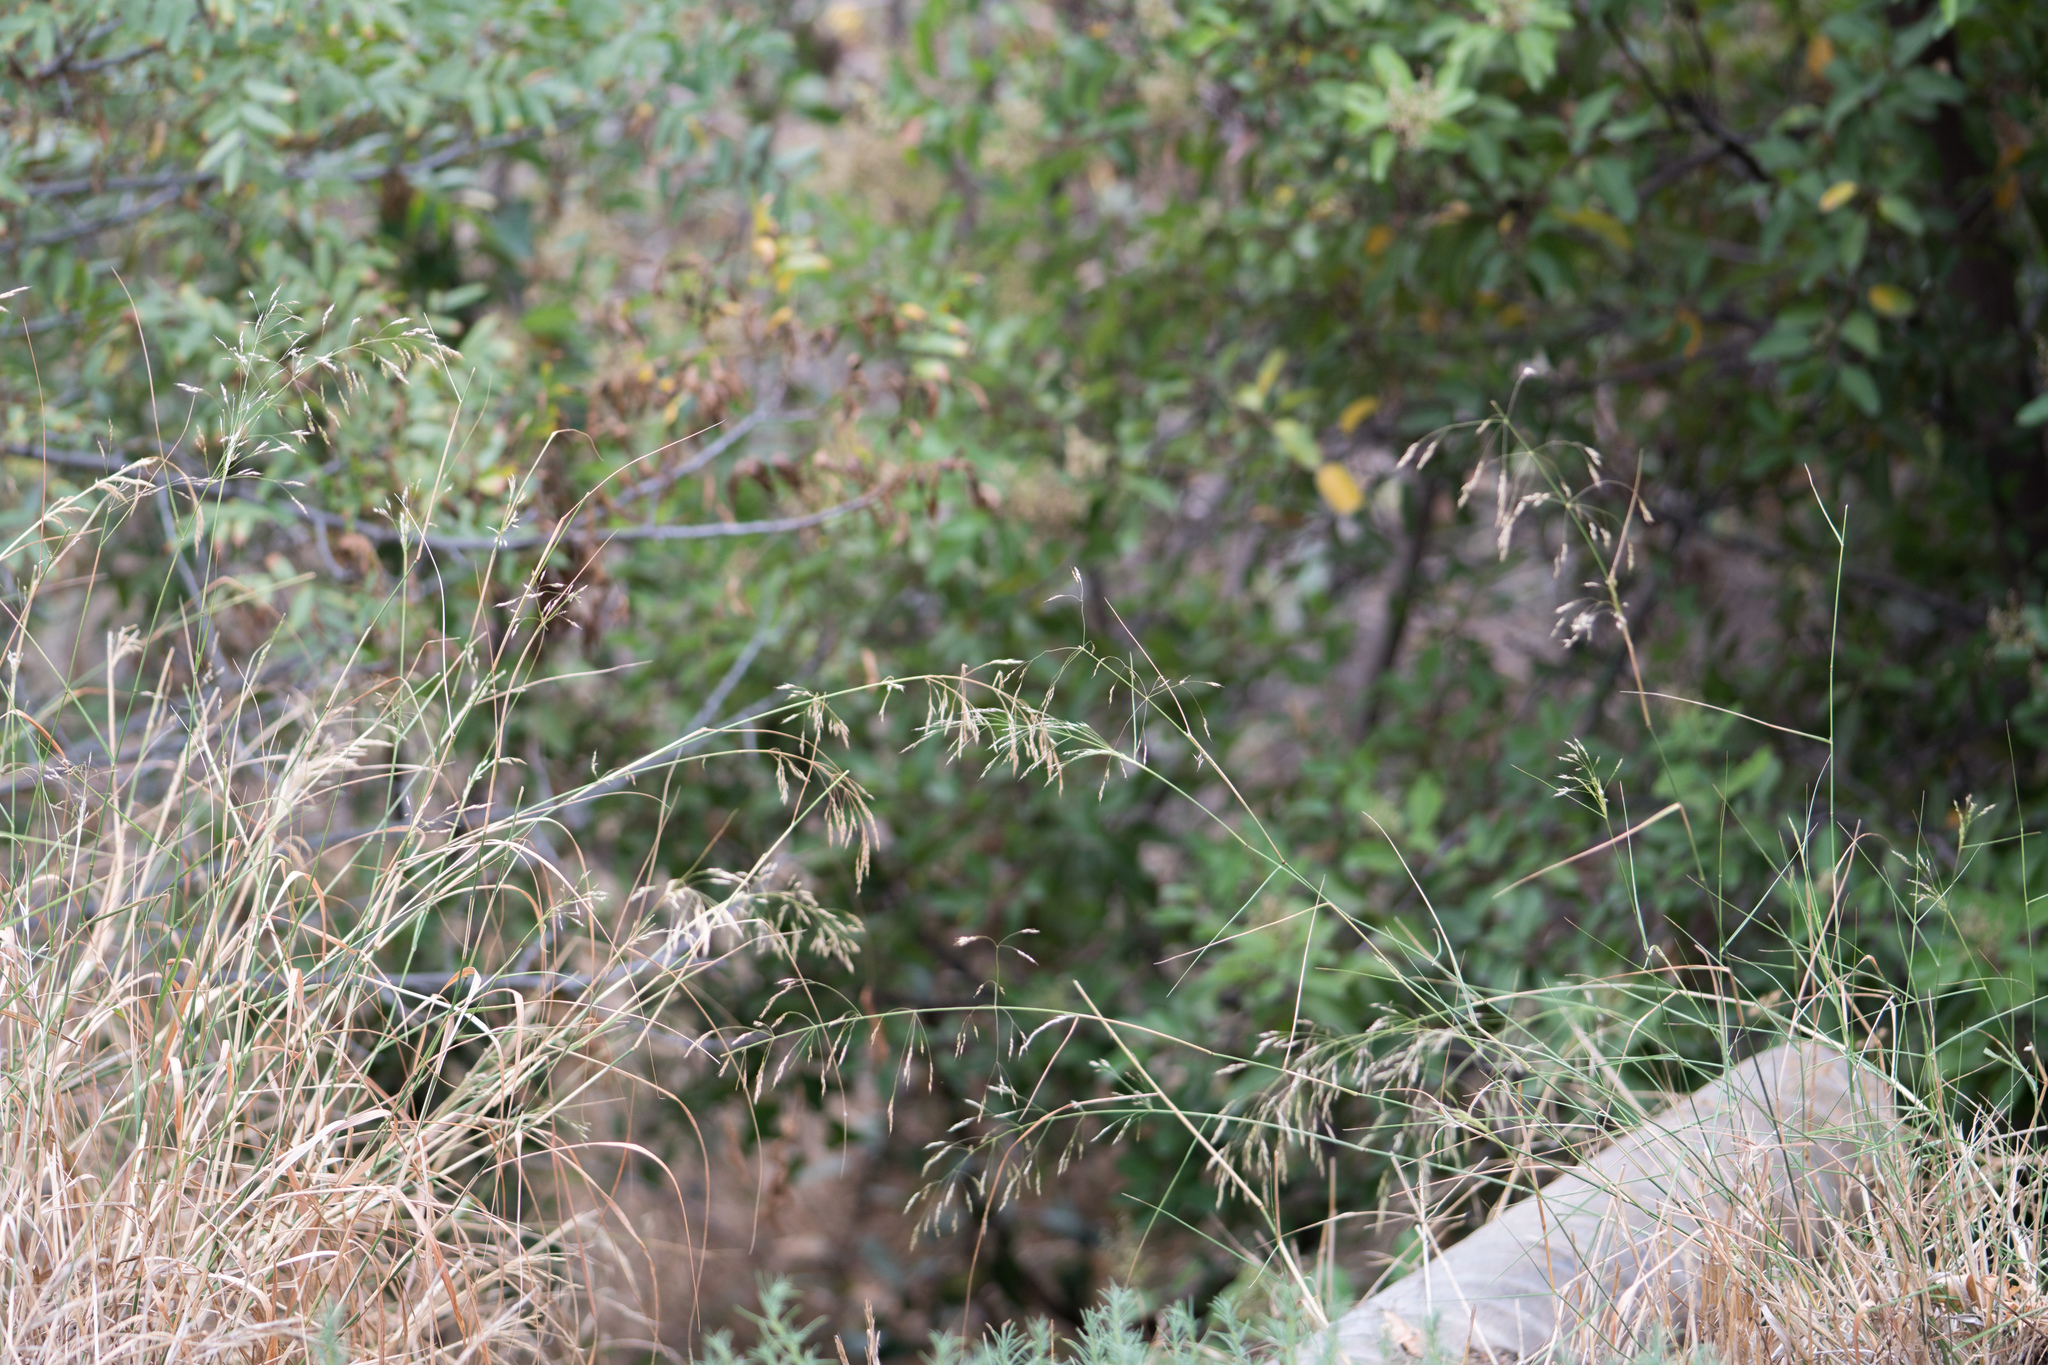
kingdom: Plantae
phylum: Tracheophyta
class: Liliopsida
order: Poales
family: Poaceae
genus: Oloptum
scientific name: Oloptum miliaceum
